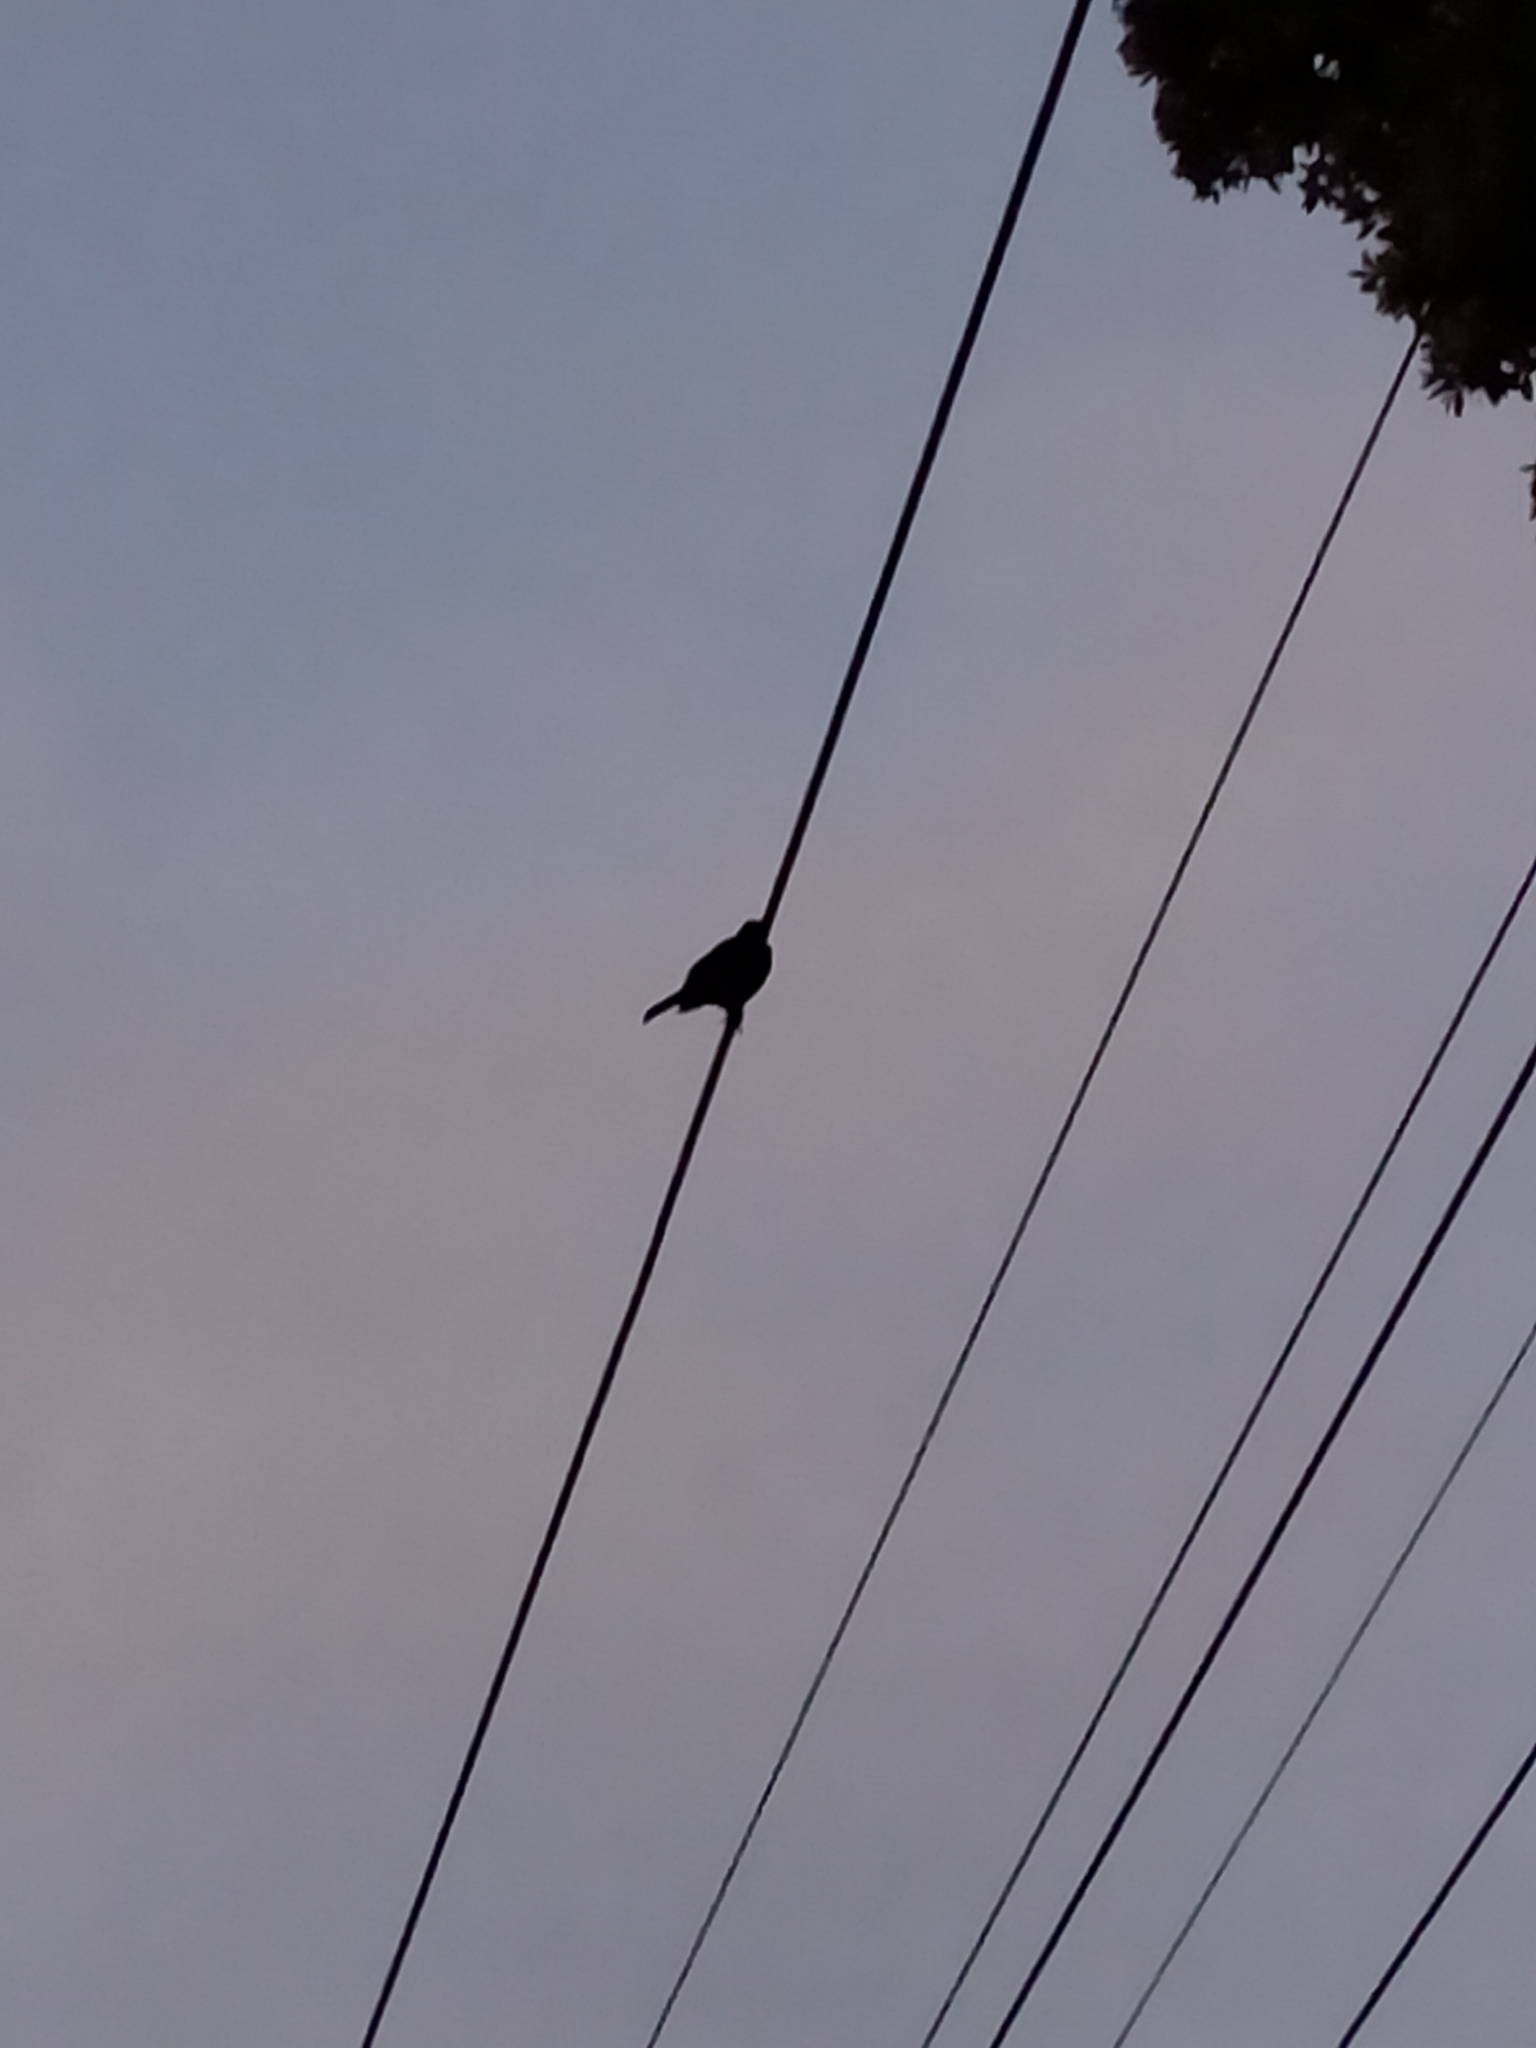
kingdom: Animalia
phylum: Chordata
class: Aves
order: Passeriformes
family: Turdidae
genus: Turdus
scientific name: Turdus merula
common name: Common blackbird
